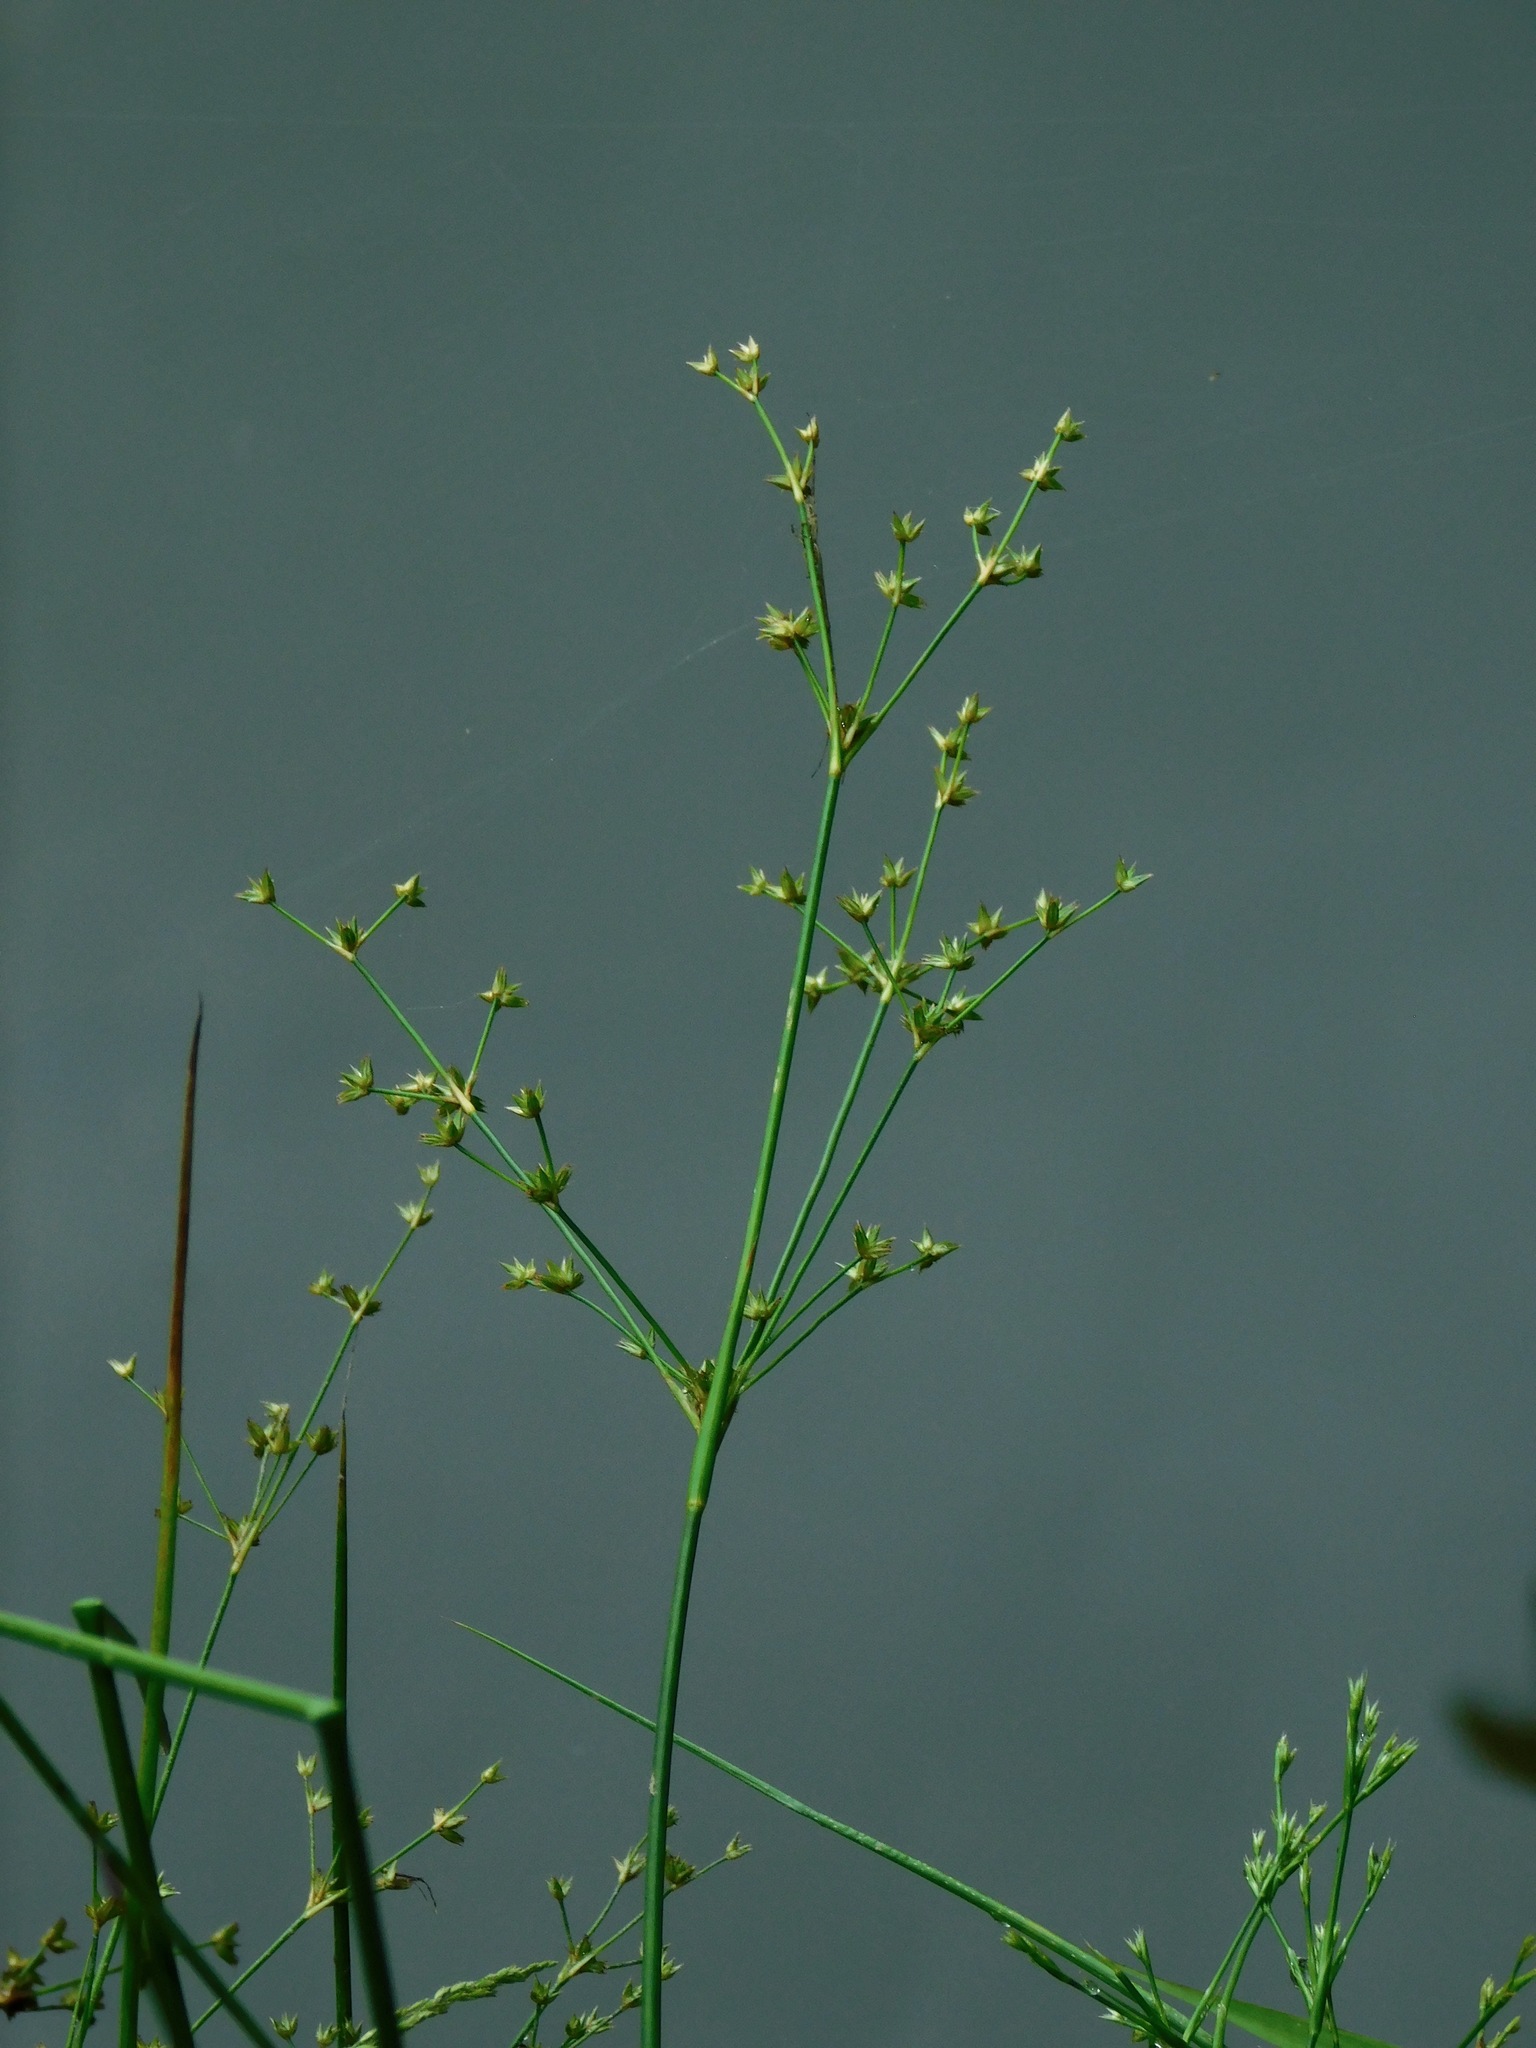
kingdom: Plantae
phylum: Tracheophyta
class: Liliopsida
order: Poales
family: Juncaceae
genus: Juncus
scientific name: Juncus diffusissimus
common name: Slimpod rush
